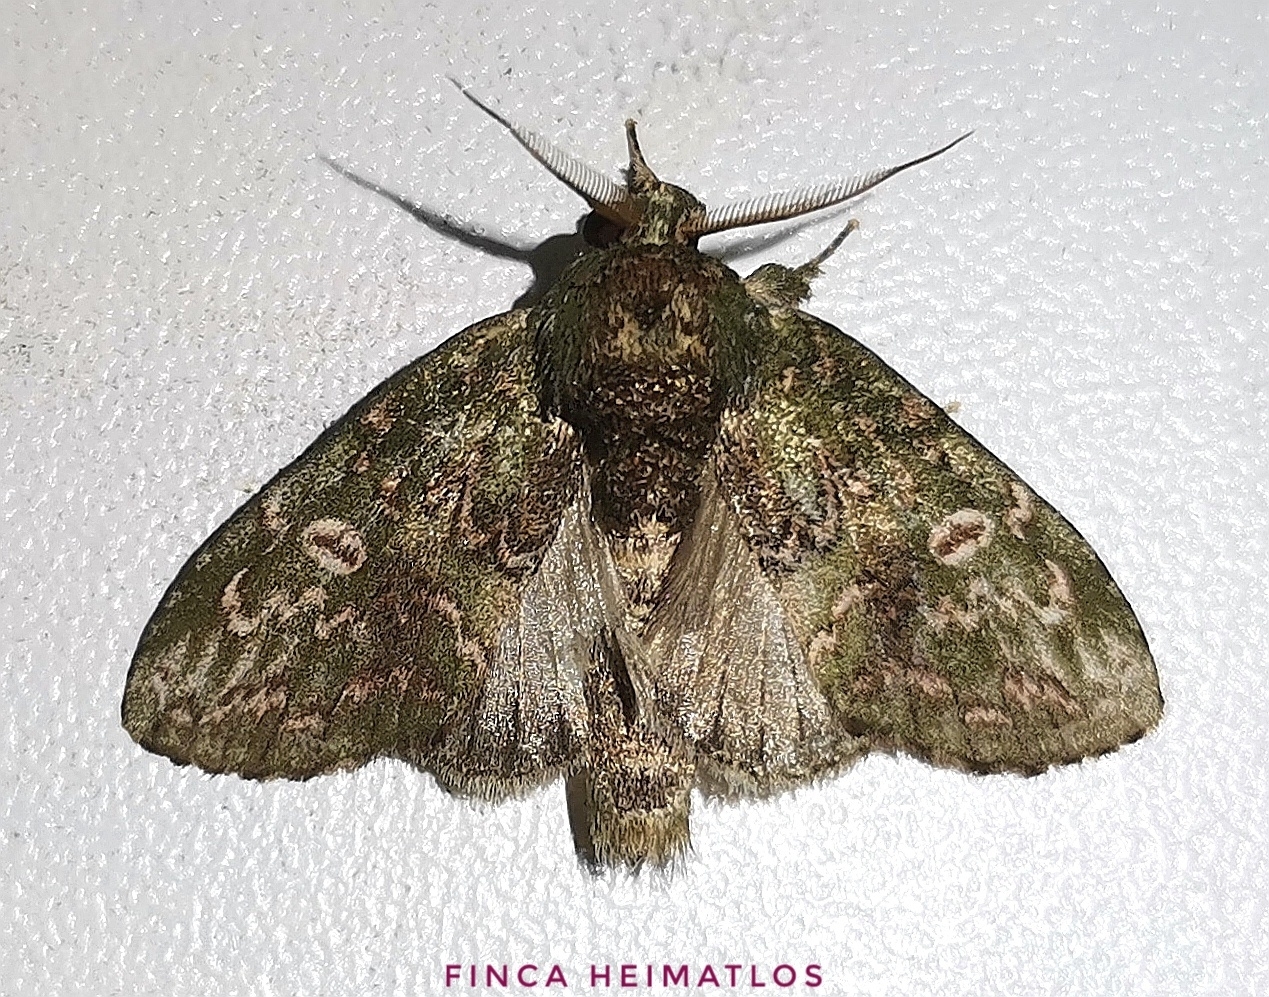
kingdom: Animalia
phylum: Arthropoda
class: Insecta
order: Lepidoptera
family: Notodontidae
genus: Disphragis
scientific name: Disphragis baracoana
